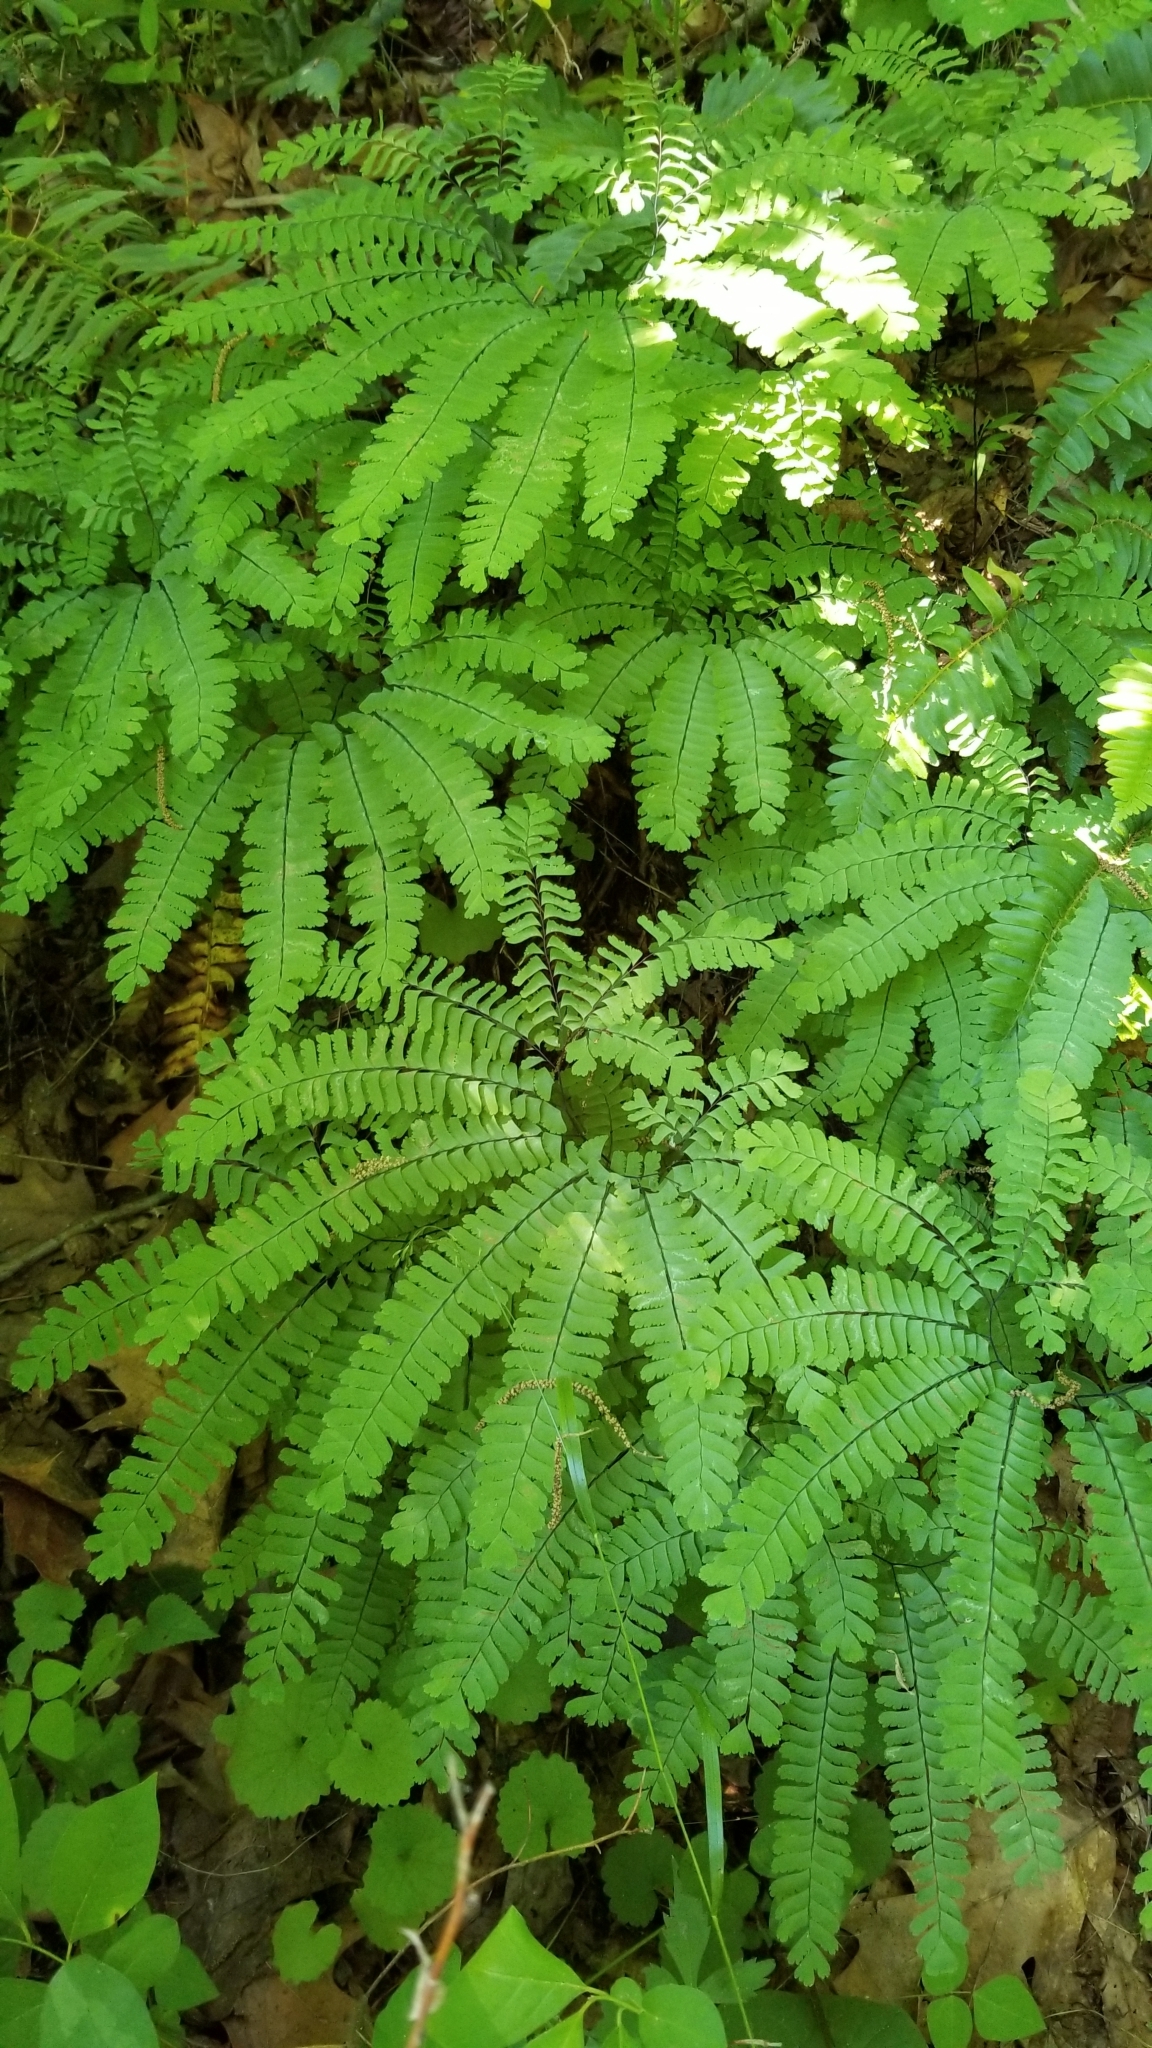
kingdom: Plantae
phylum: Tracheophyta
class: Polypodiopsida
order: Polypodiales
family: Pteridaceae
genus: Adiantum
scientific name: Adiantum pedatum
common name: Five-finger fern
